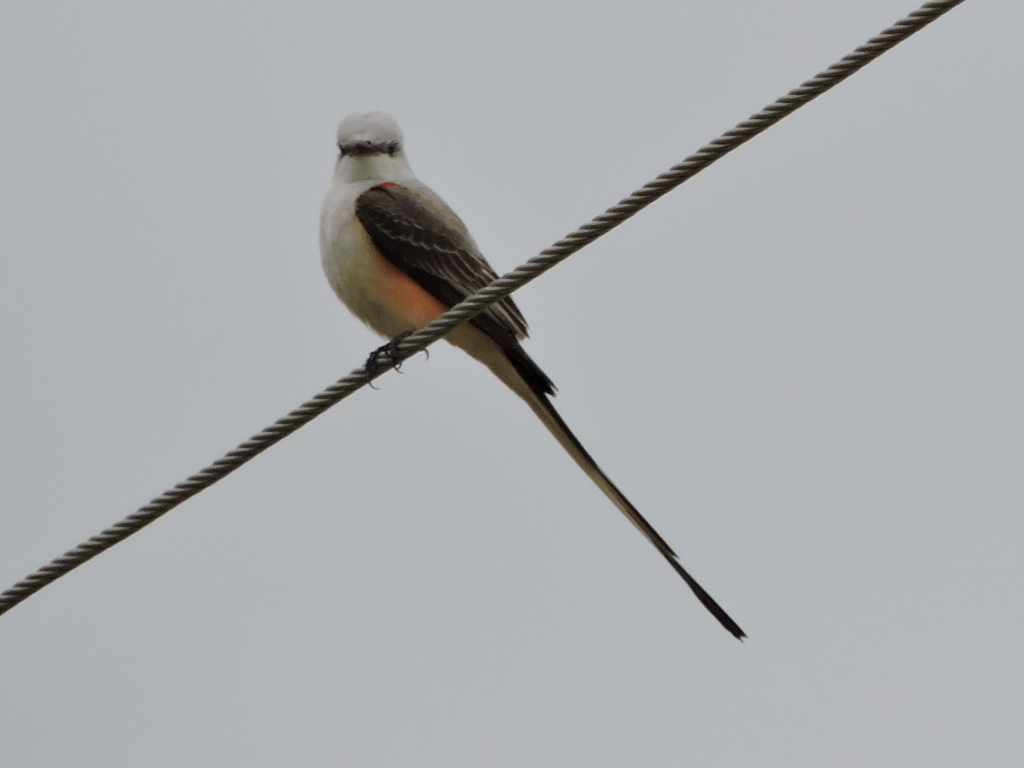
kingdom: Animalia
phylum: Chordata
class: Aves
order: Passeriformes
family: Tyrannidae
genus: Tyrannus
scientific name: Tyrannus forficatus
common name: Scissor-tailed flycatcher
